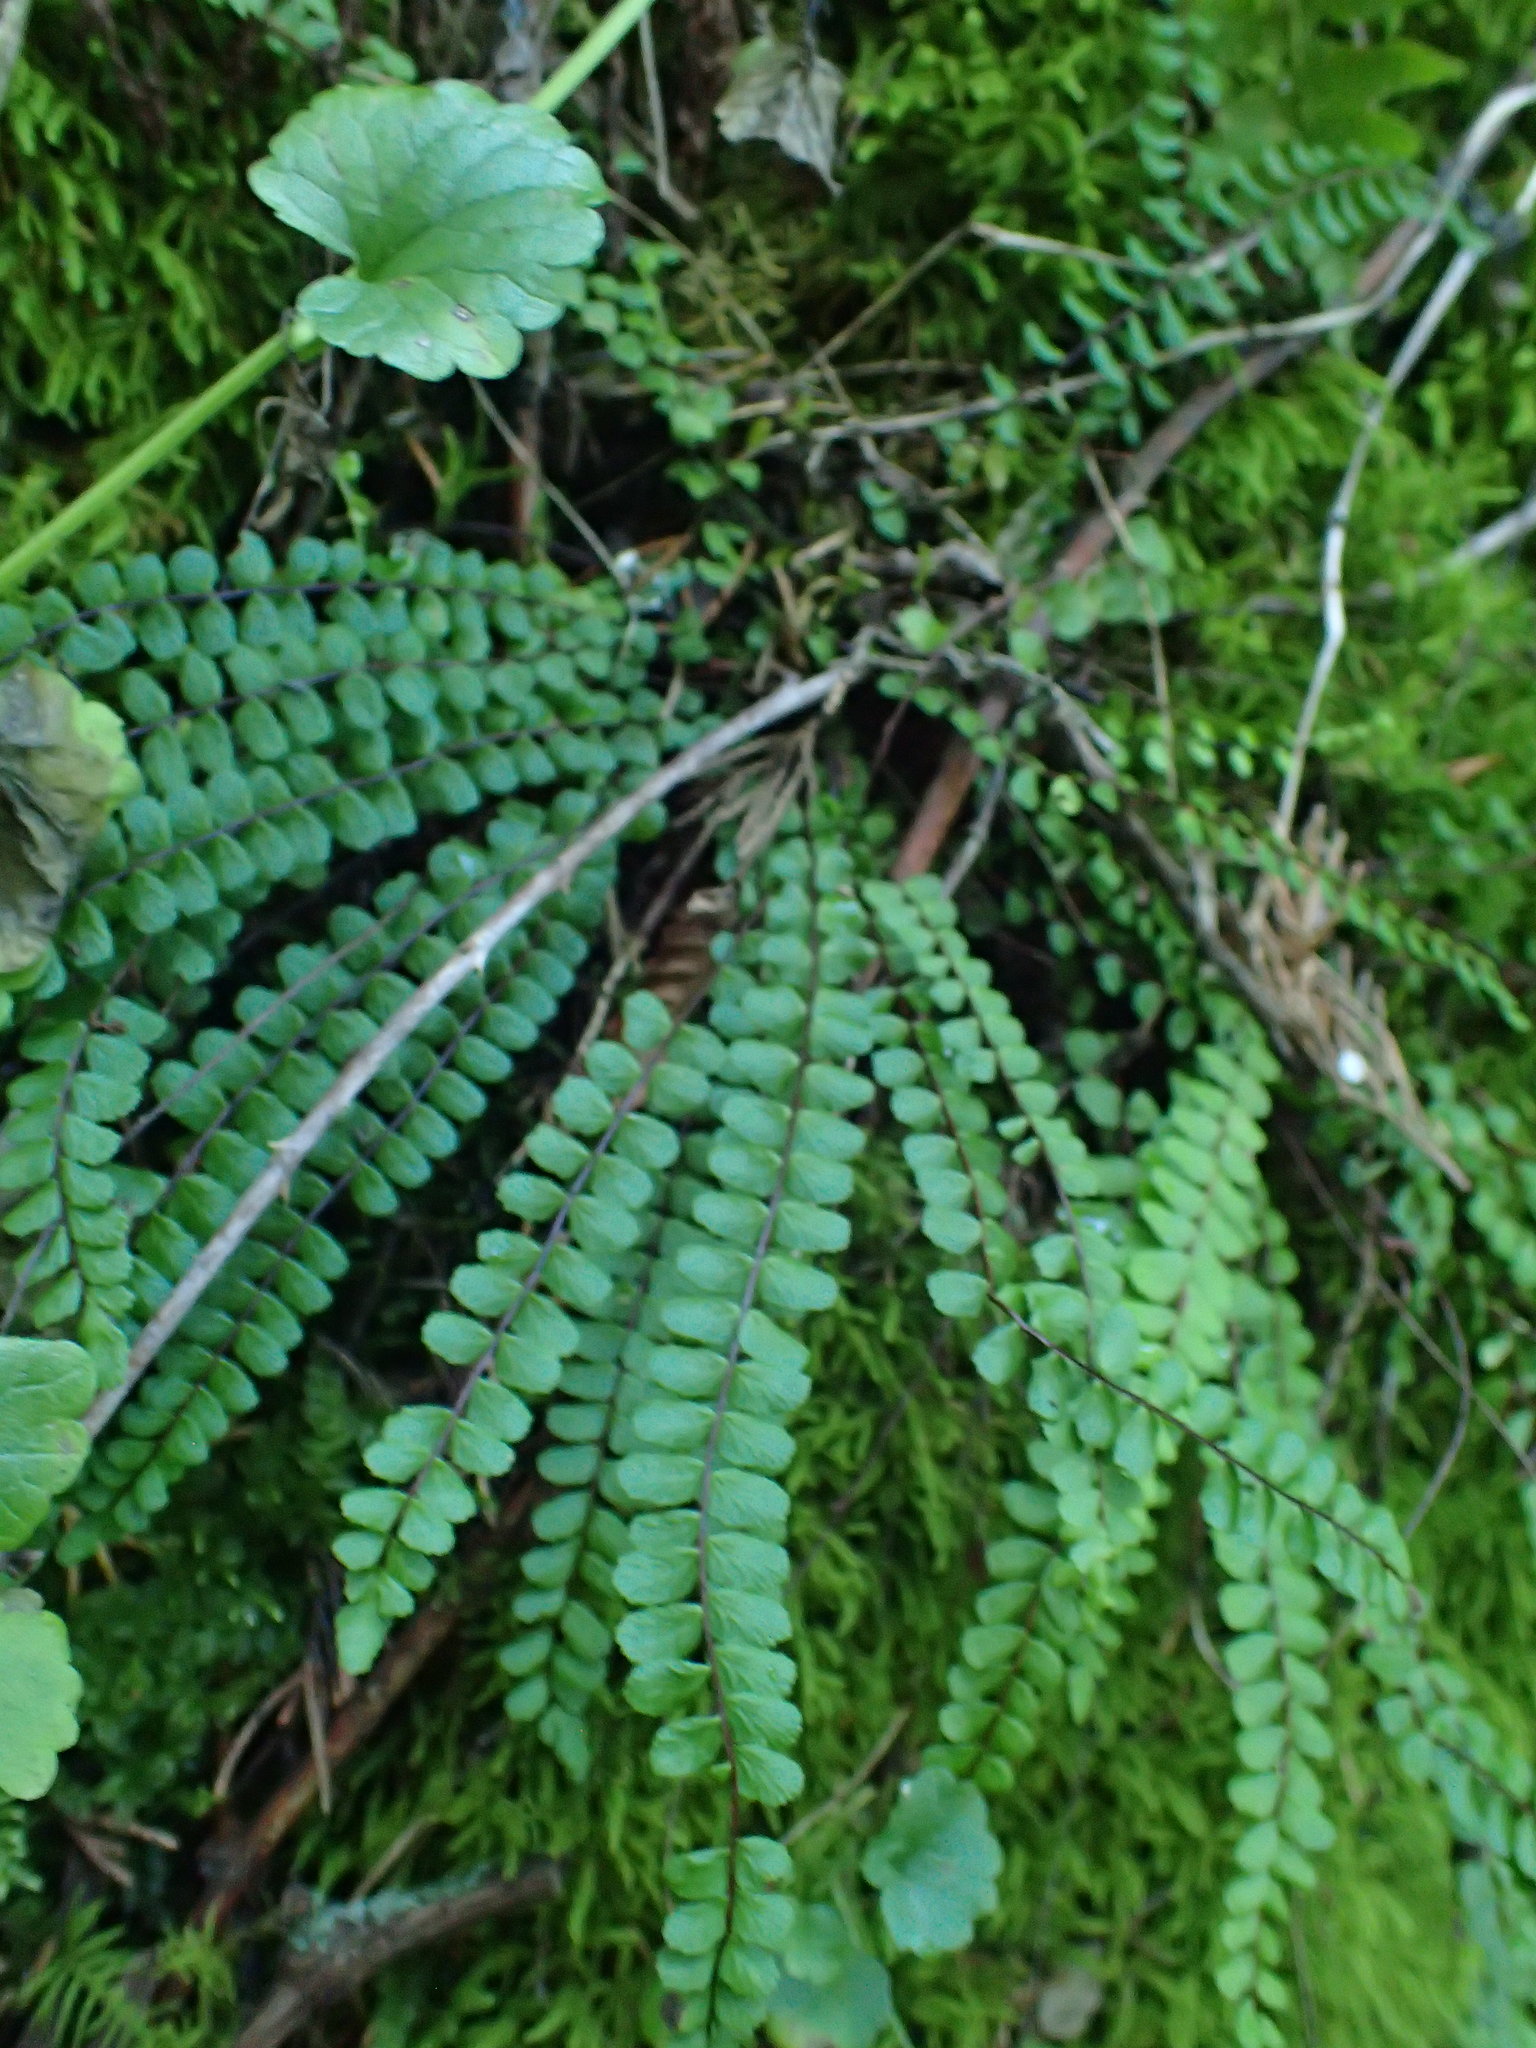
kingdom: Plantae
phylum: Tracheophyta
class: Polypodiopsida
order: Polypodiales
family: Aspleniaceae
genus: Asplenium
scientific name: Asplenium trichomanes
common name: Maidenhair spleenwort
